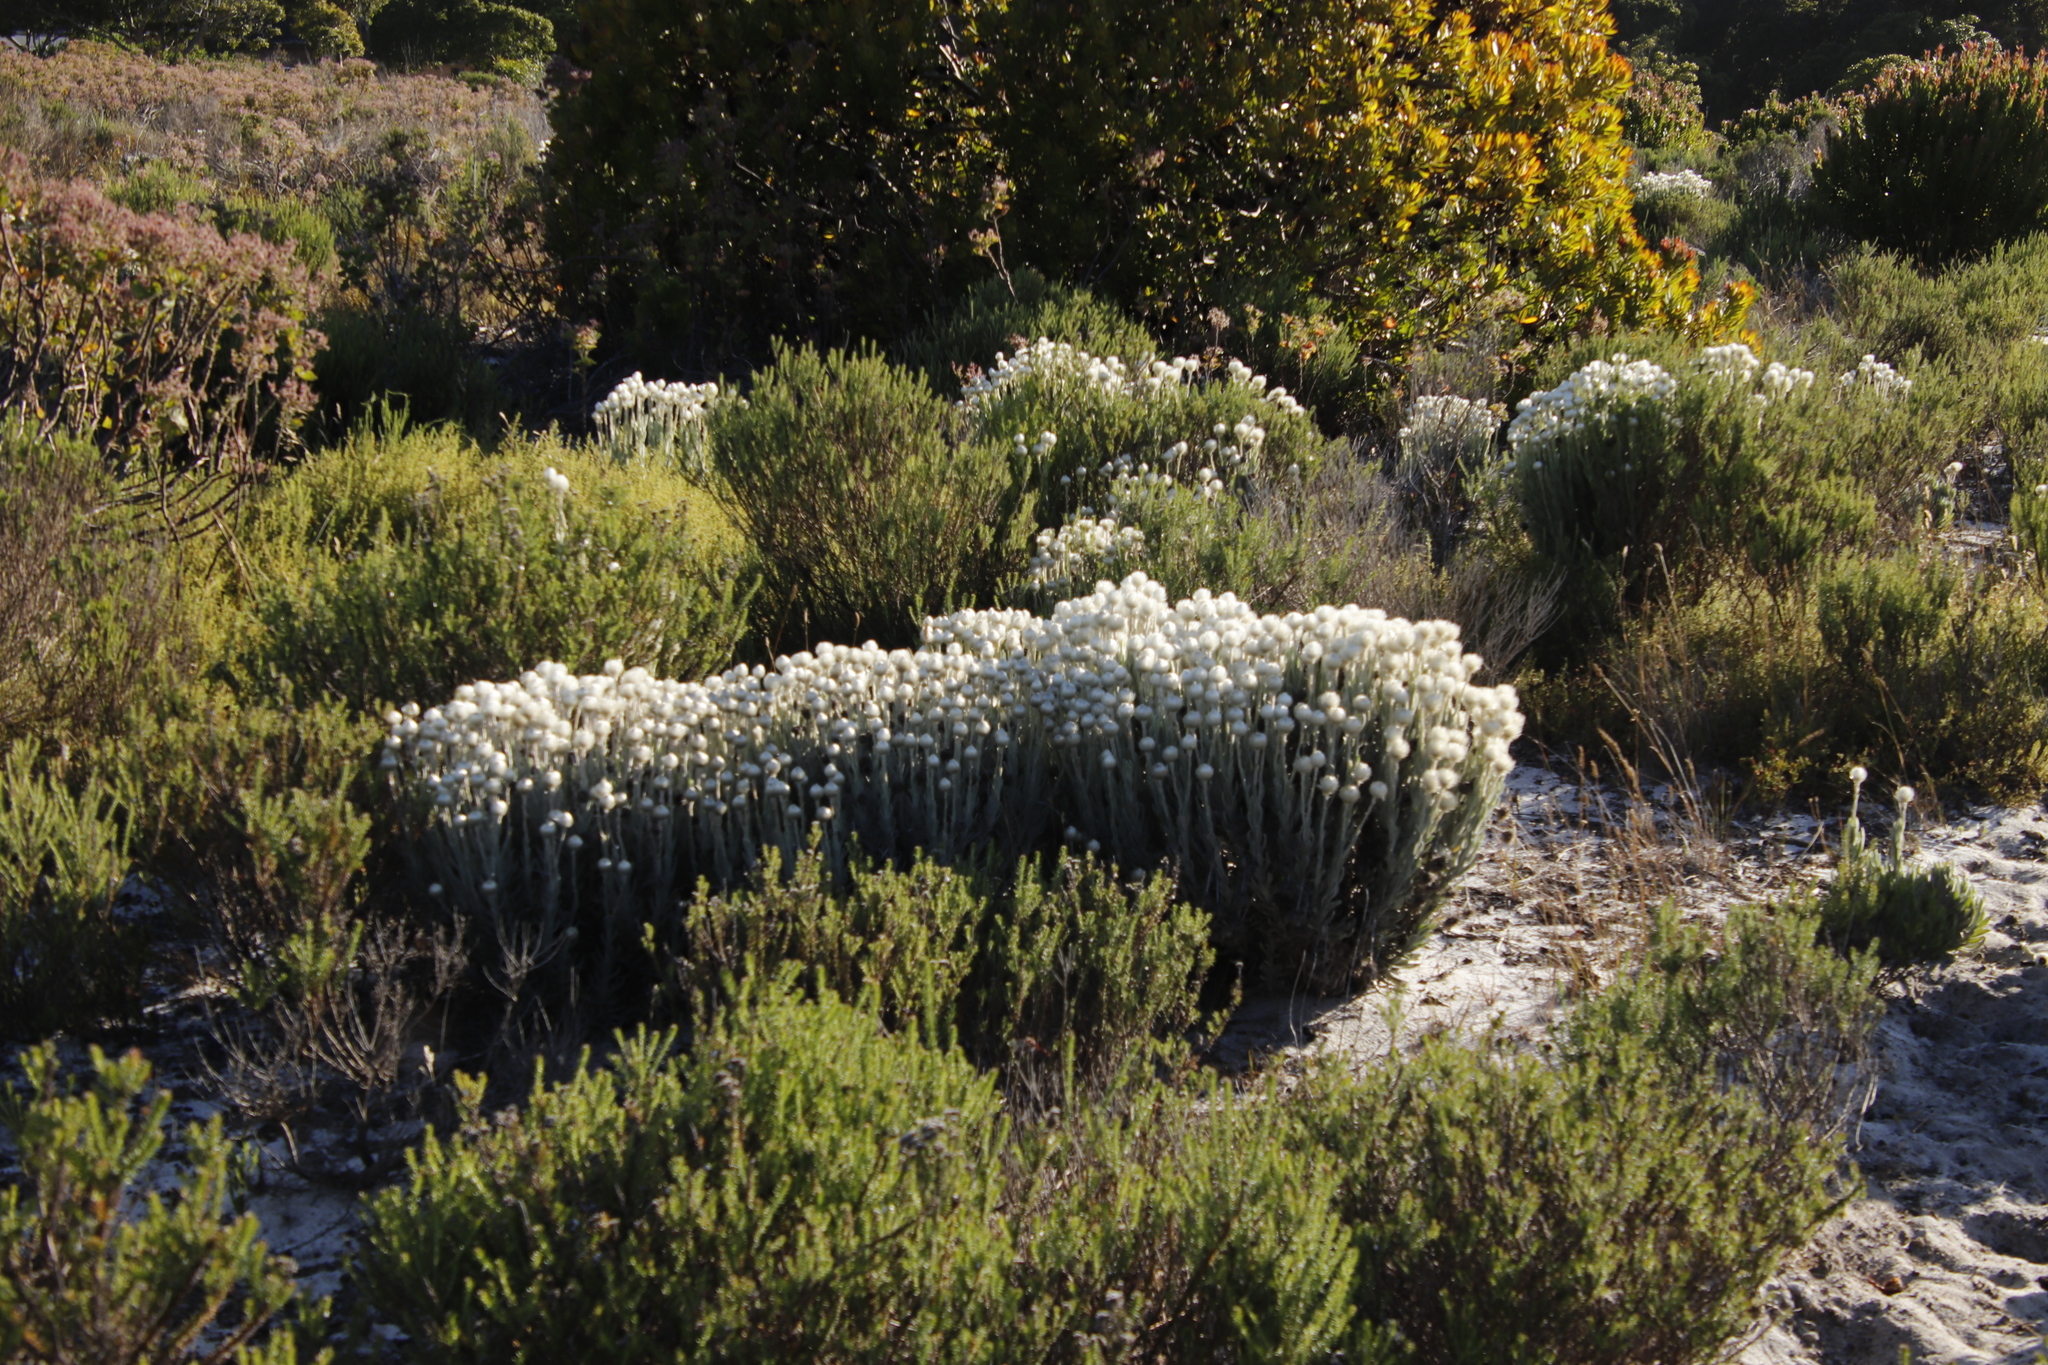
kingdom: Plantae
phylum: Tracheophyta
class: Magnoliopsida
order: Asterales
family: Asteraceae
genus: Syncarpha
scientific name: Syncarpha vestita
